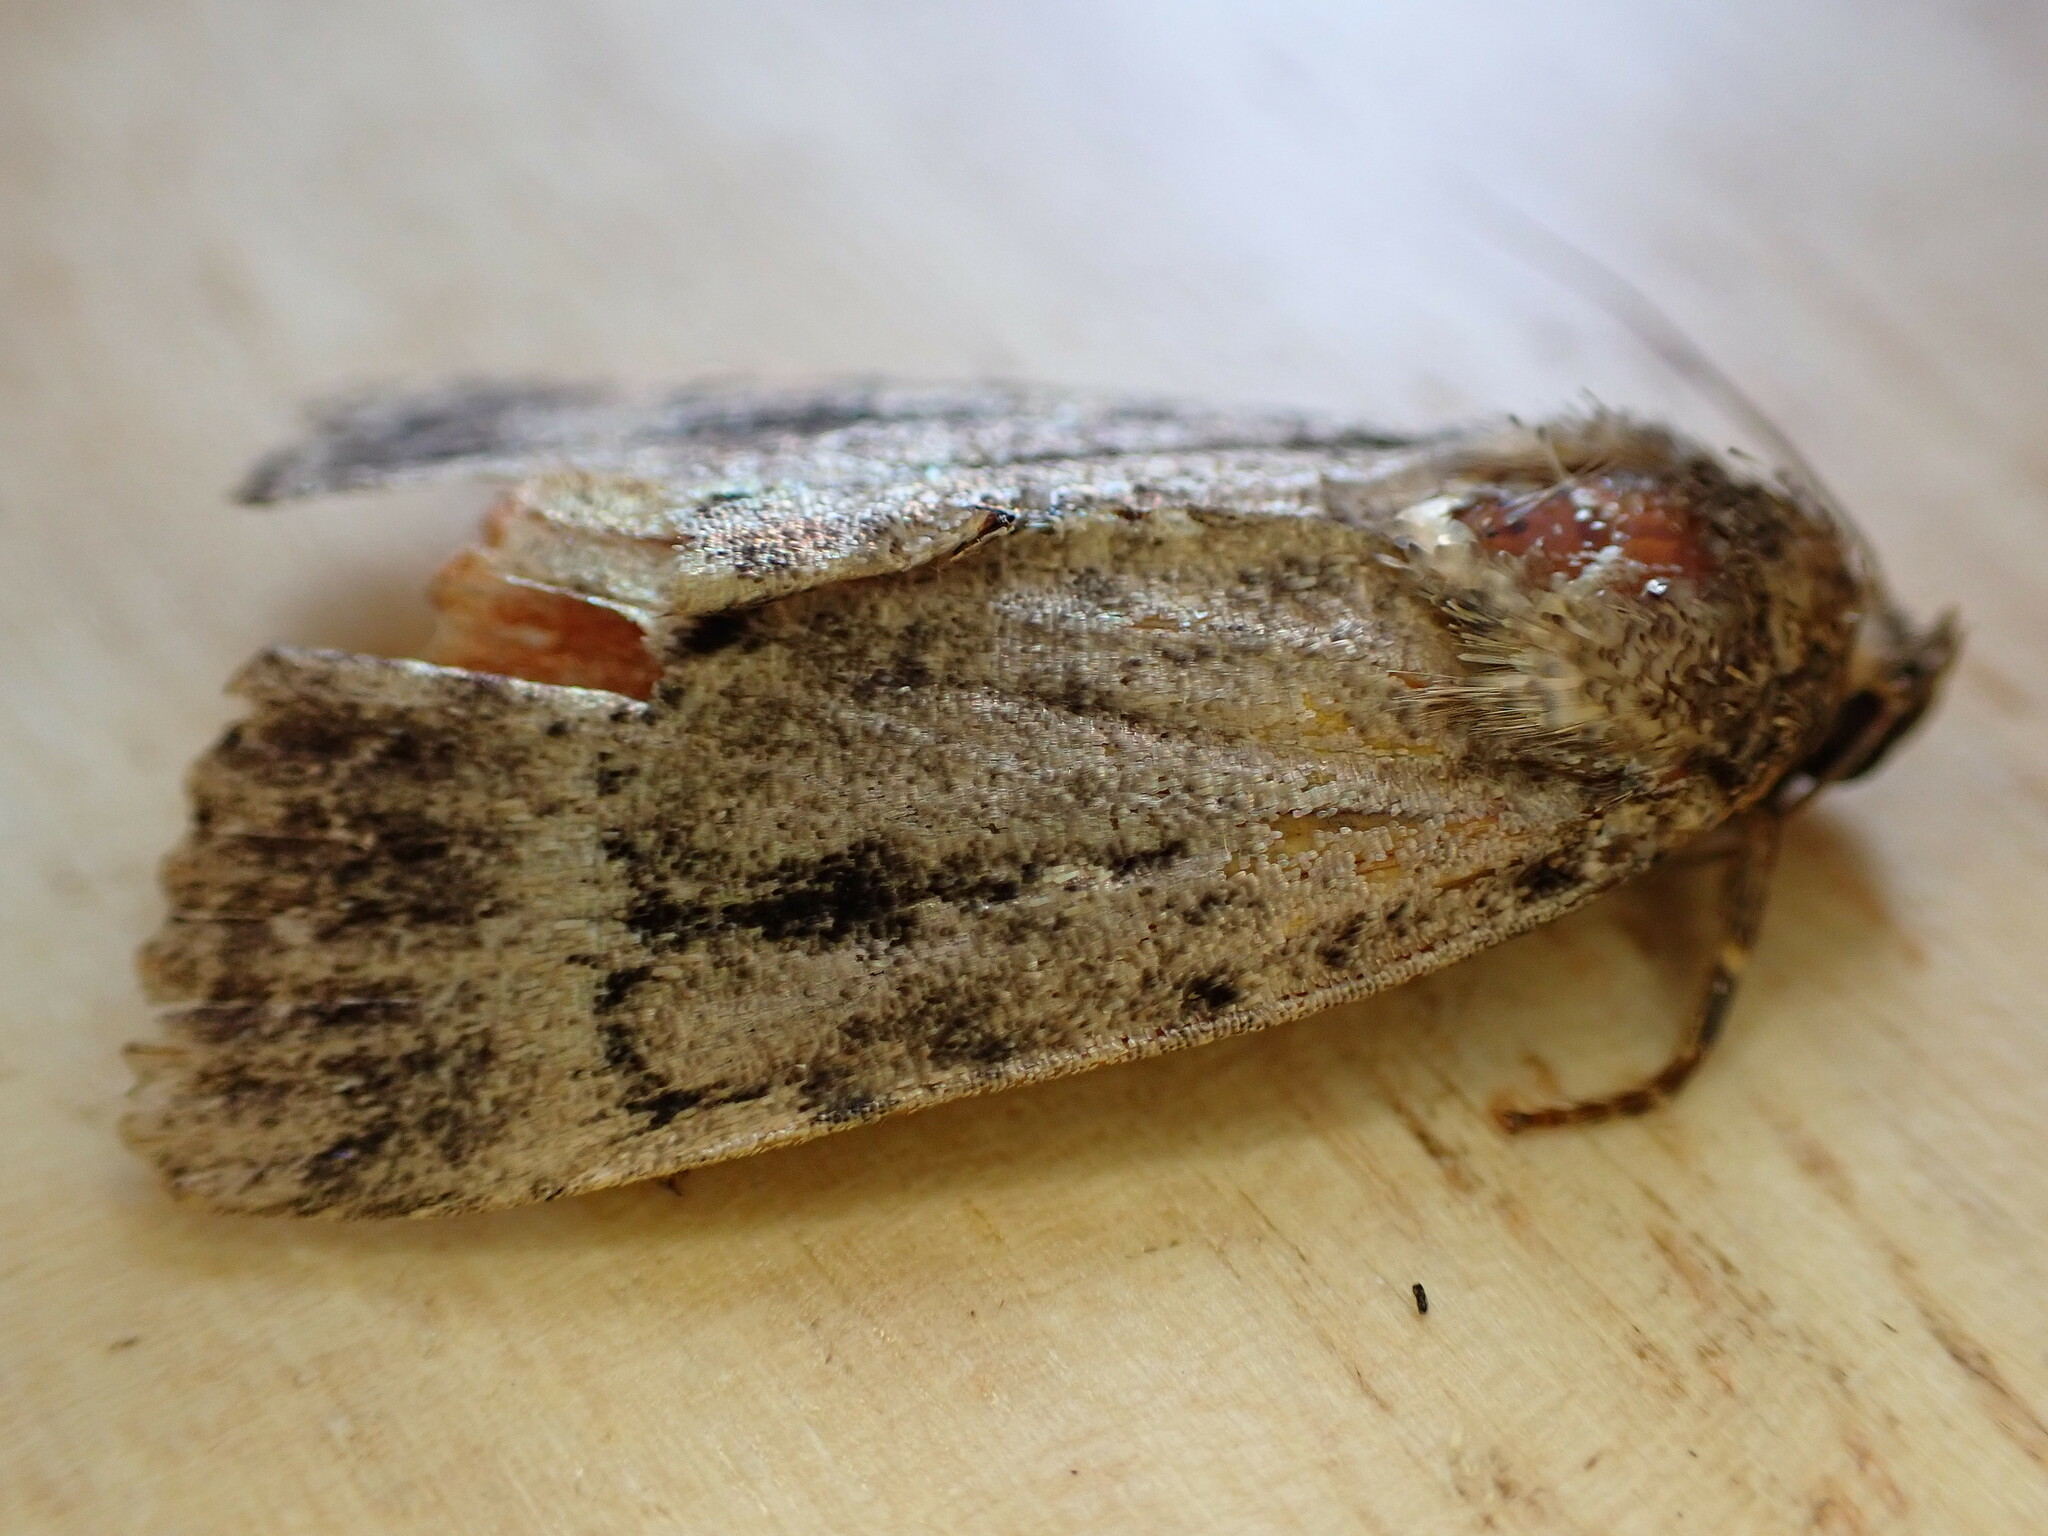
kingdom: Animalia
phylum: Arthropoda
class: Insecta
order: Lepidoptera
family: Noctuidae
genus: Amphipyra
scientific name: Amphipyra
